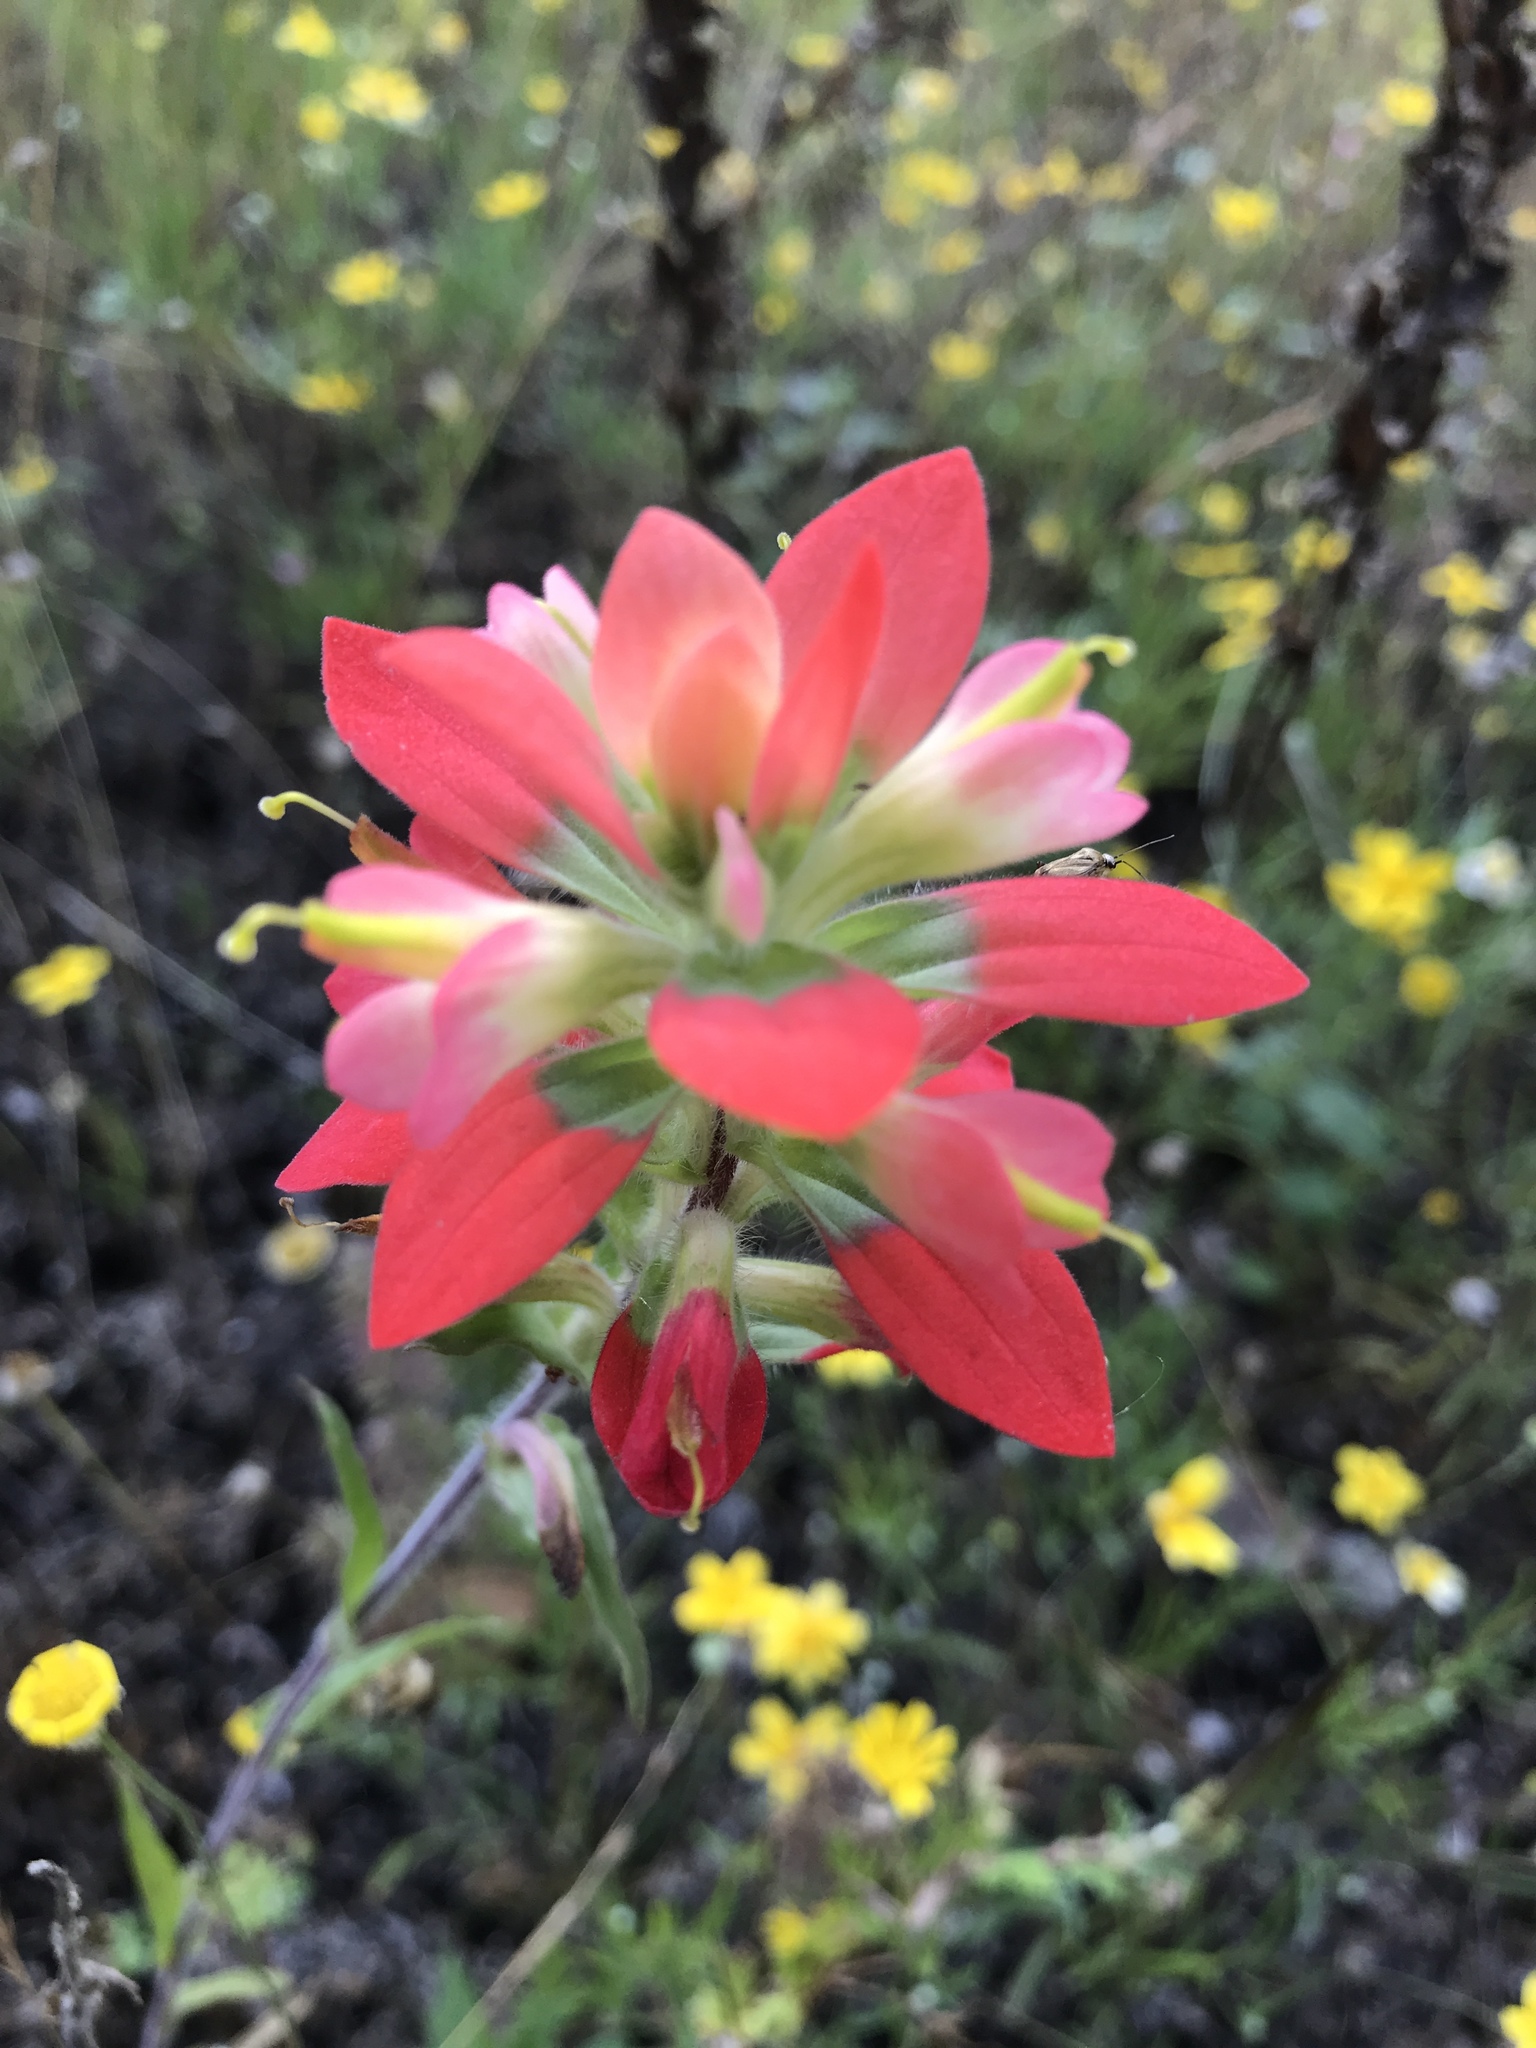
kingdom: Plantae
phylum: Tracheophyta
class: Magnoliopsida
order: Lamiales
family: Orobanchaceae
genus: Castilleja
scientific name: Castilleja indivisa
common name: Texas paintbrush
